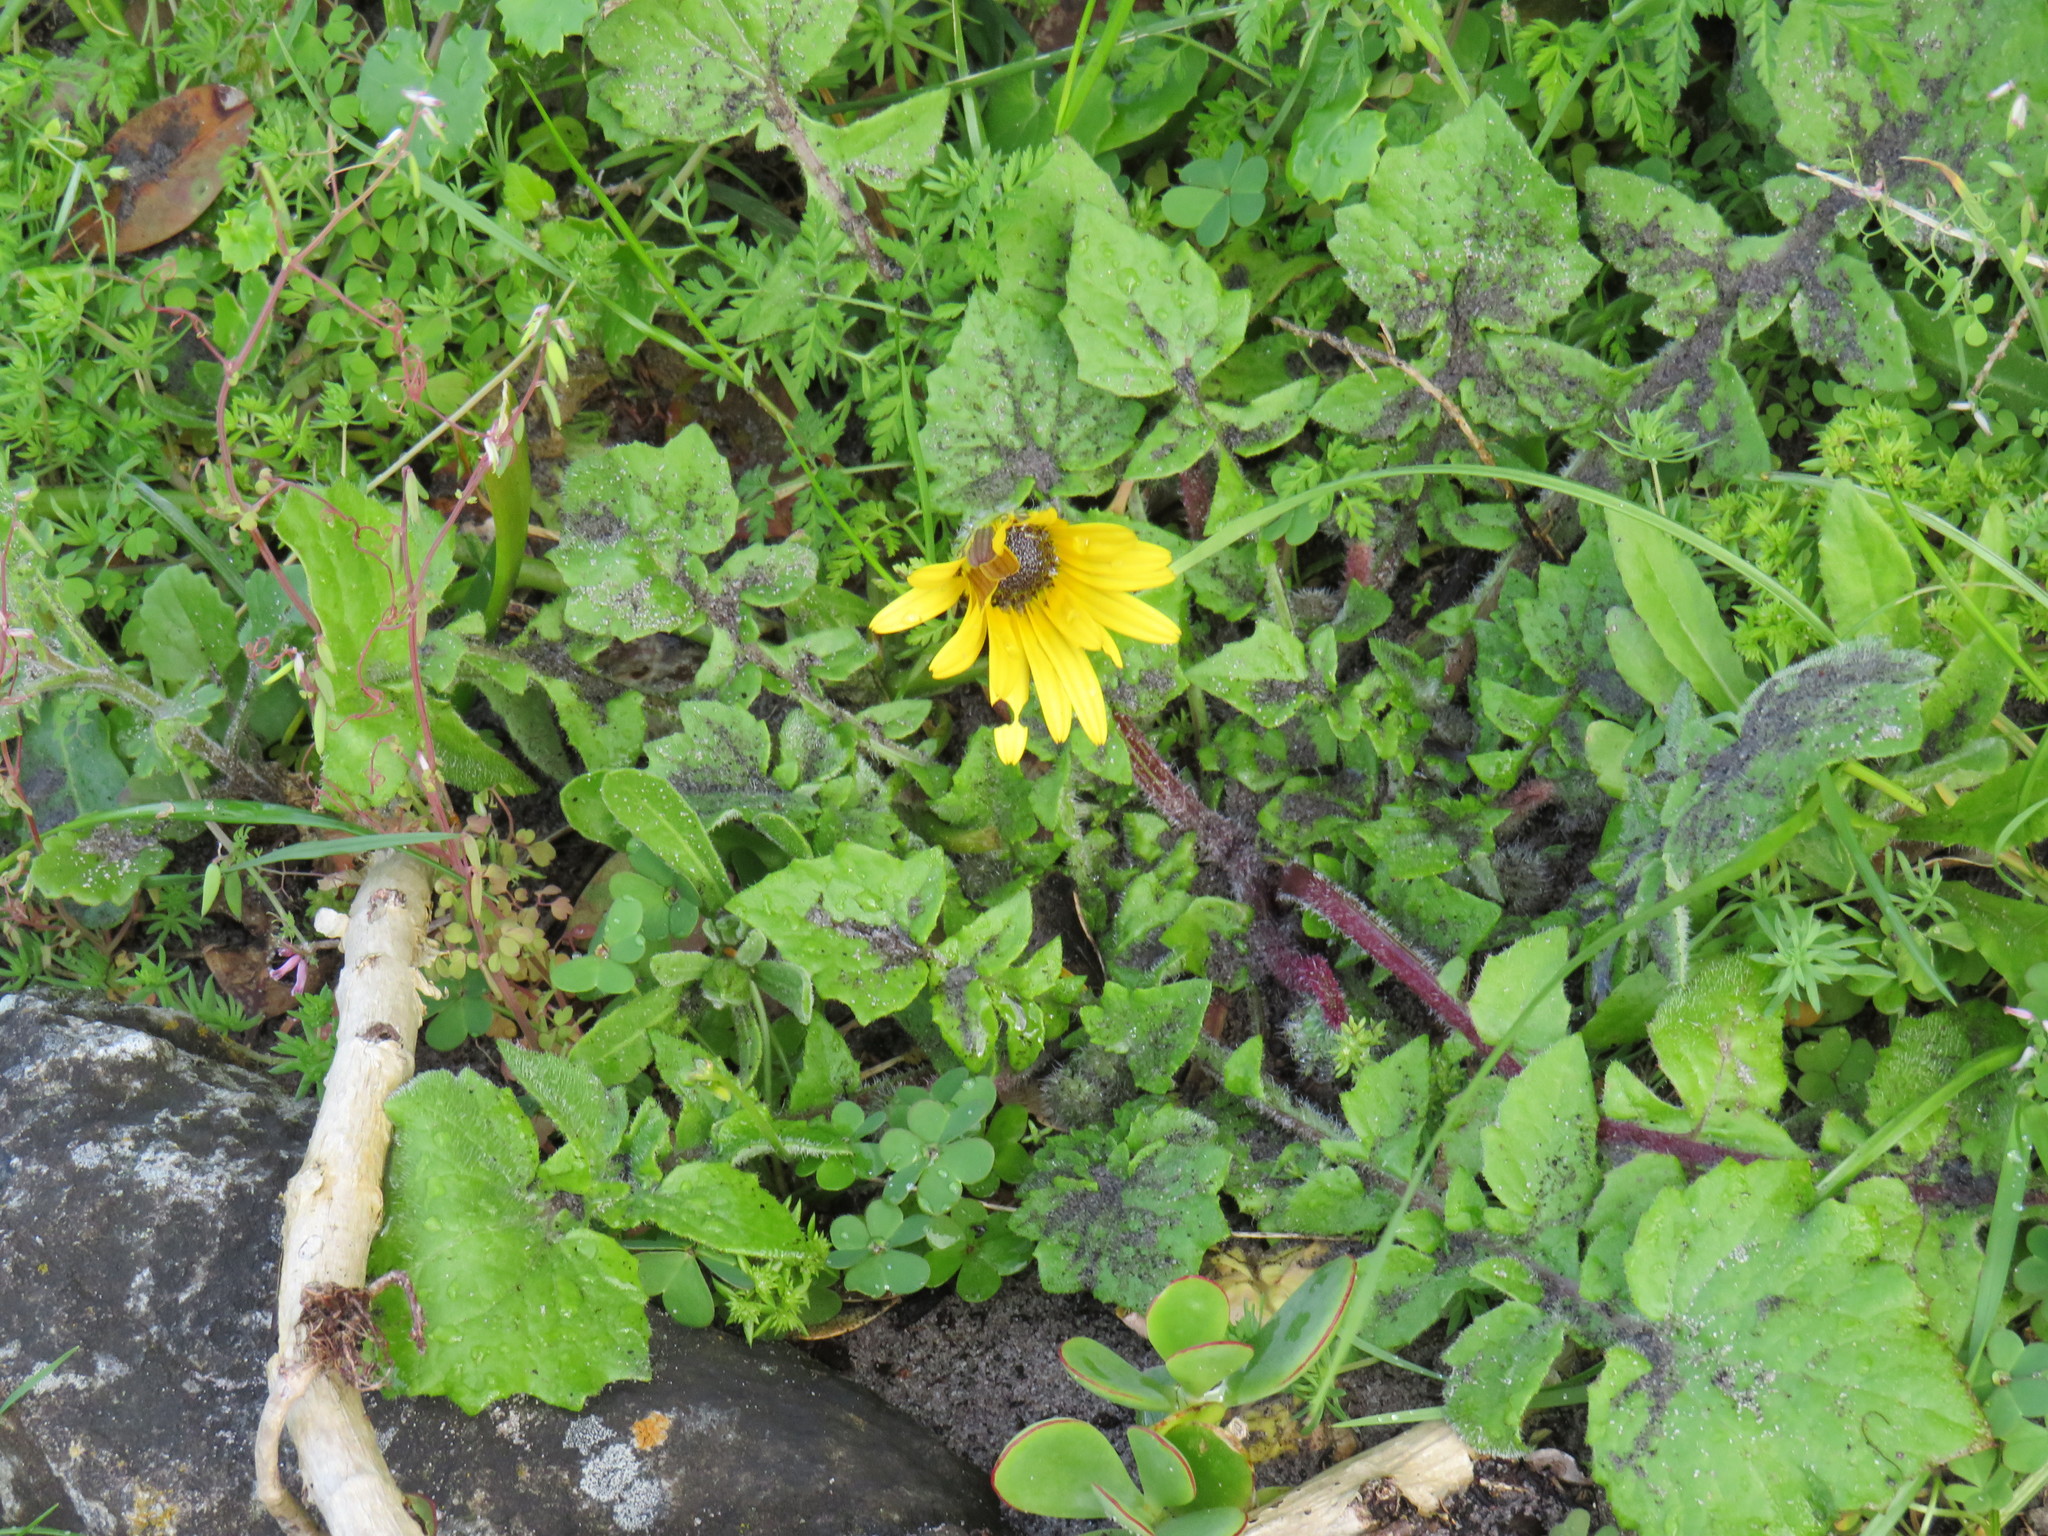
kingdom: Plantae
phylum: Tracheophyta
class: Magnoliopsida
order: Asterales
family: Asteraceae
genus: Arctotheca
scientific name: Arctotheca calendula
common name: Capeweed
